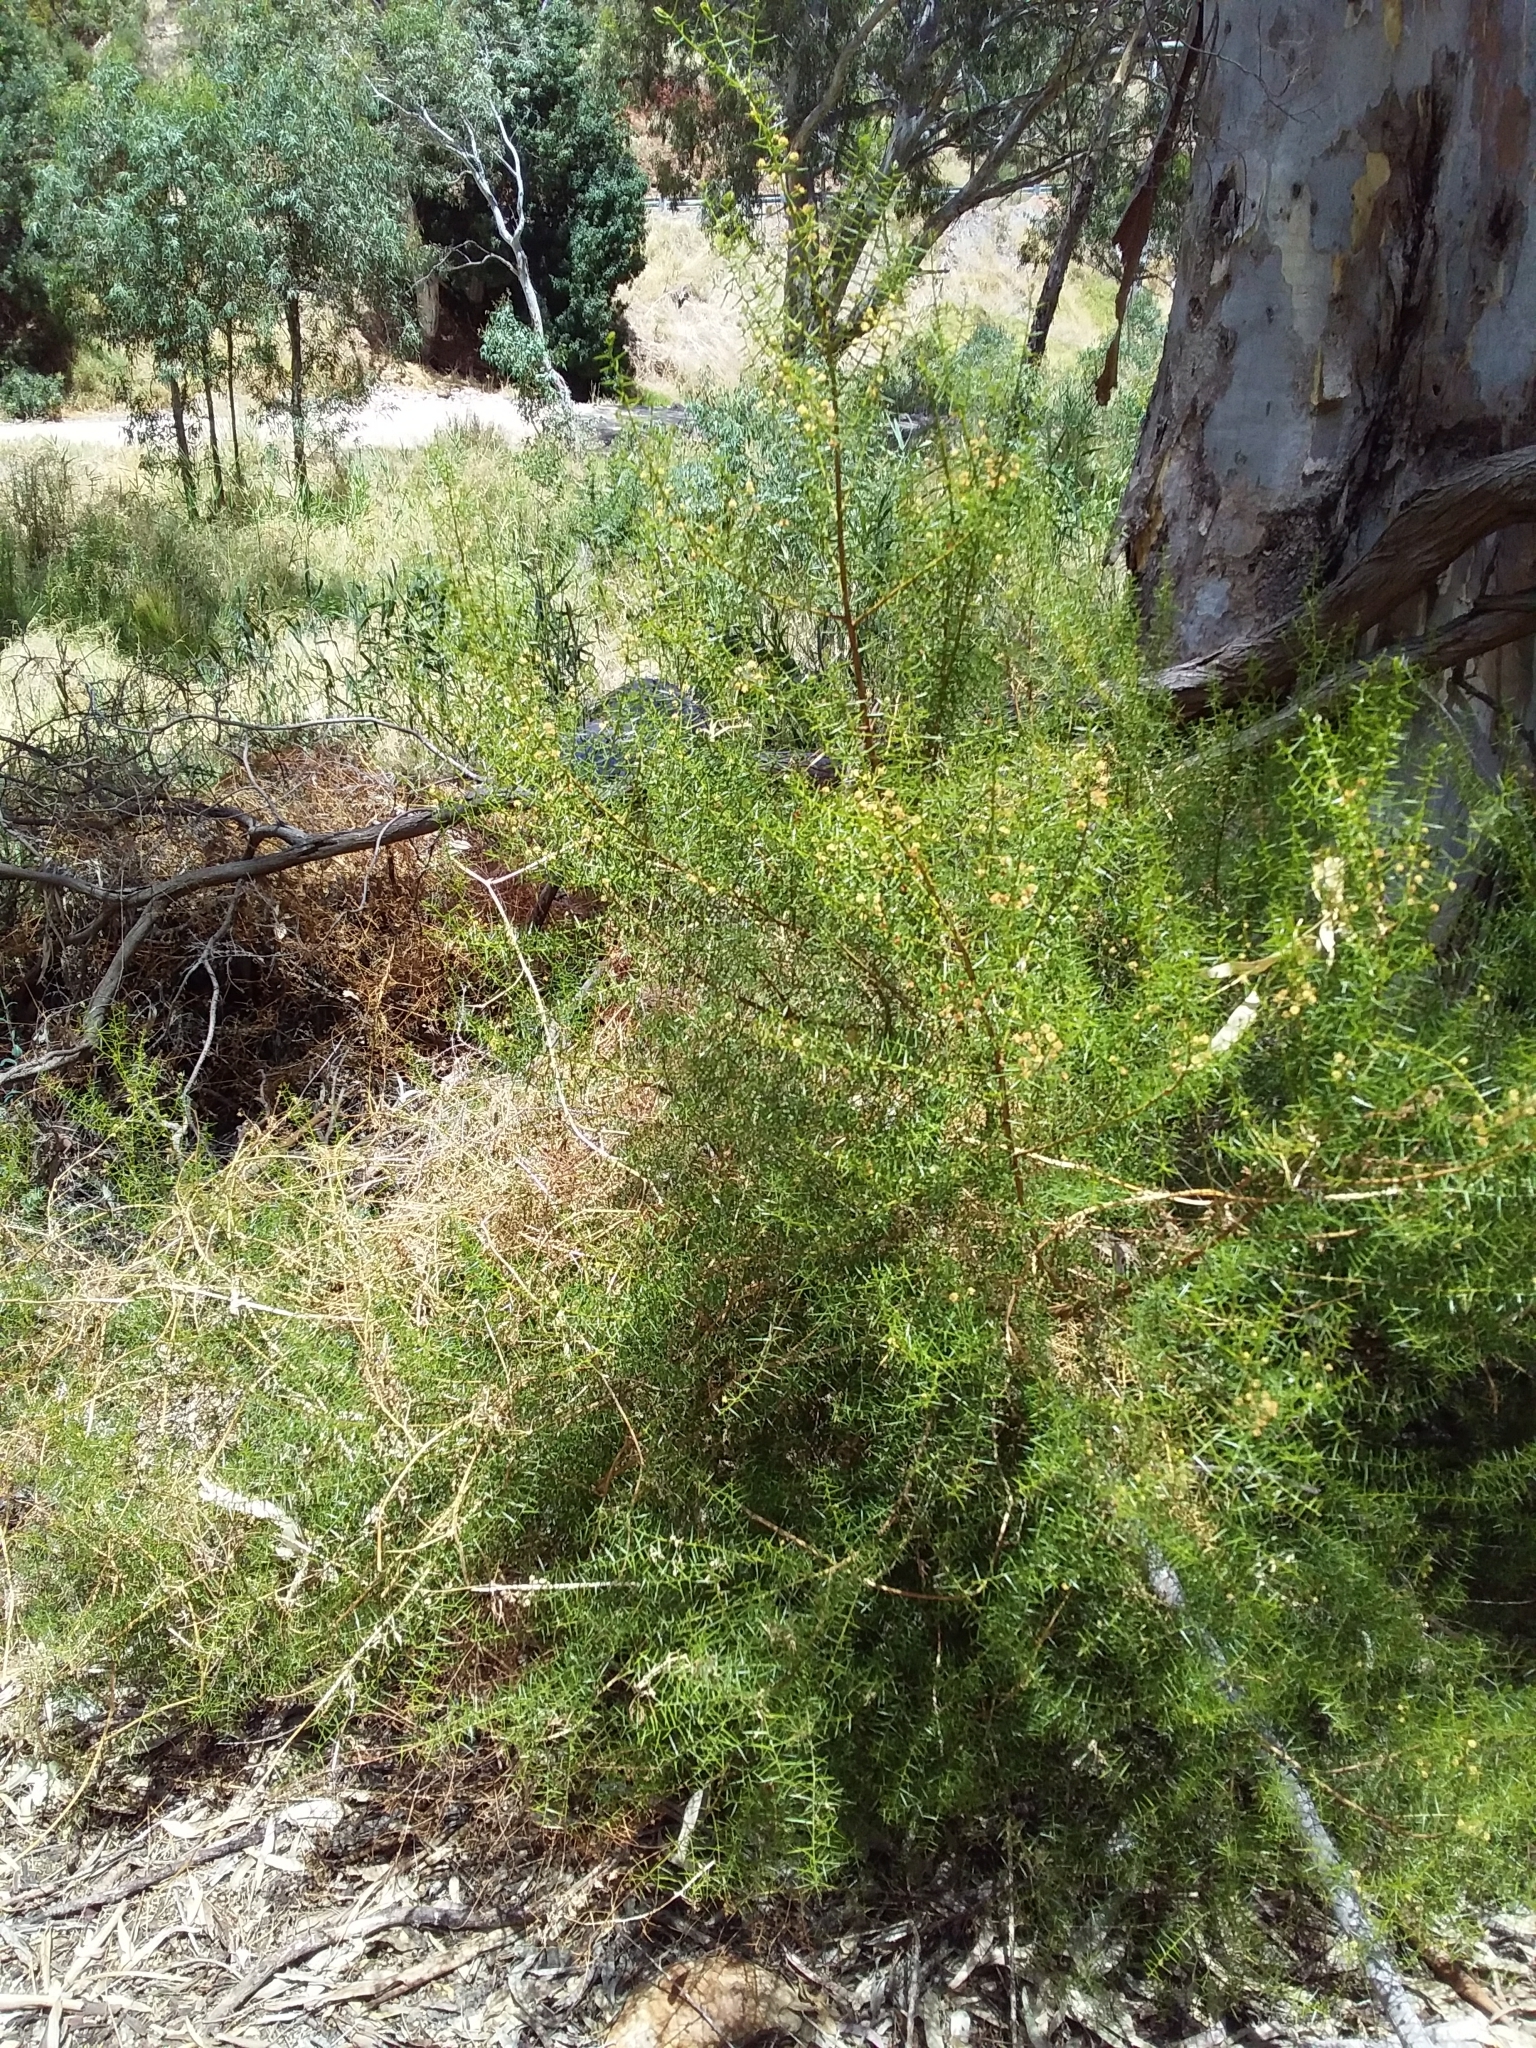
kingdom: Plantae
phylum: Tracheophyta
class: Magnoliopsida
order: Fabales
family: Fabaceae
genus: Acacia
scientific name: Acacia rupicola
